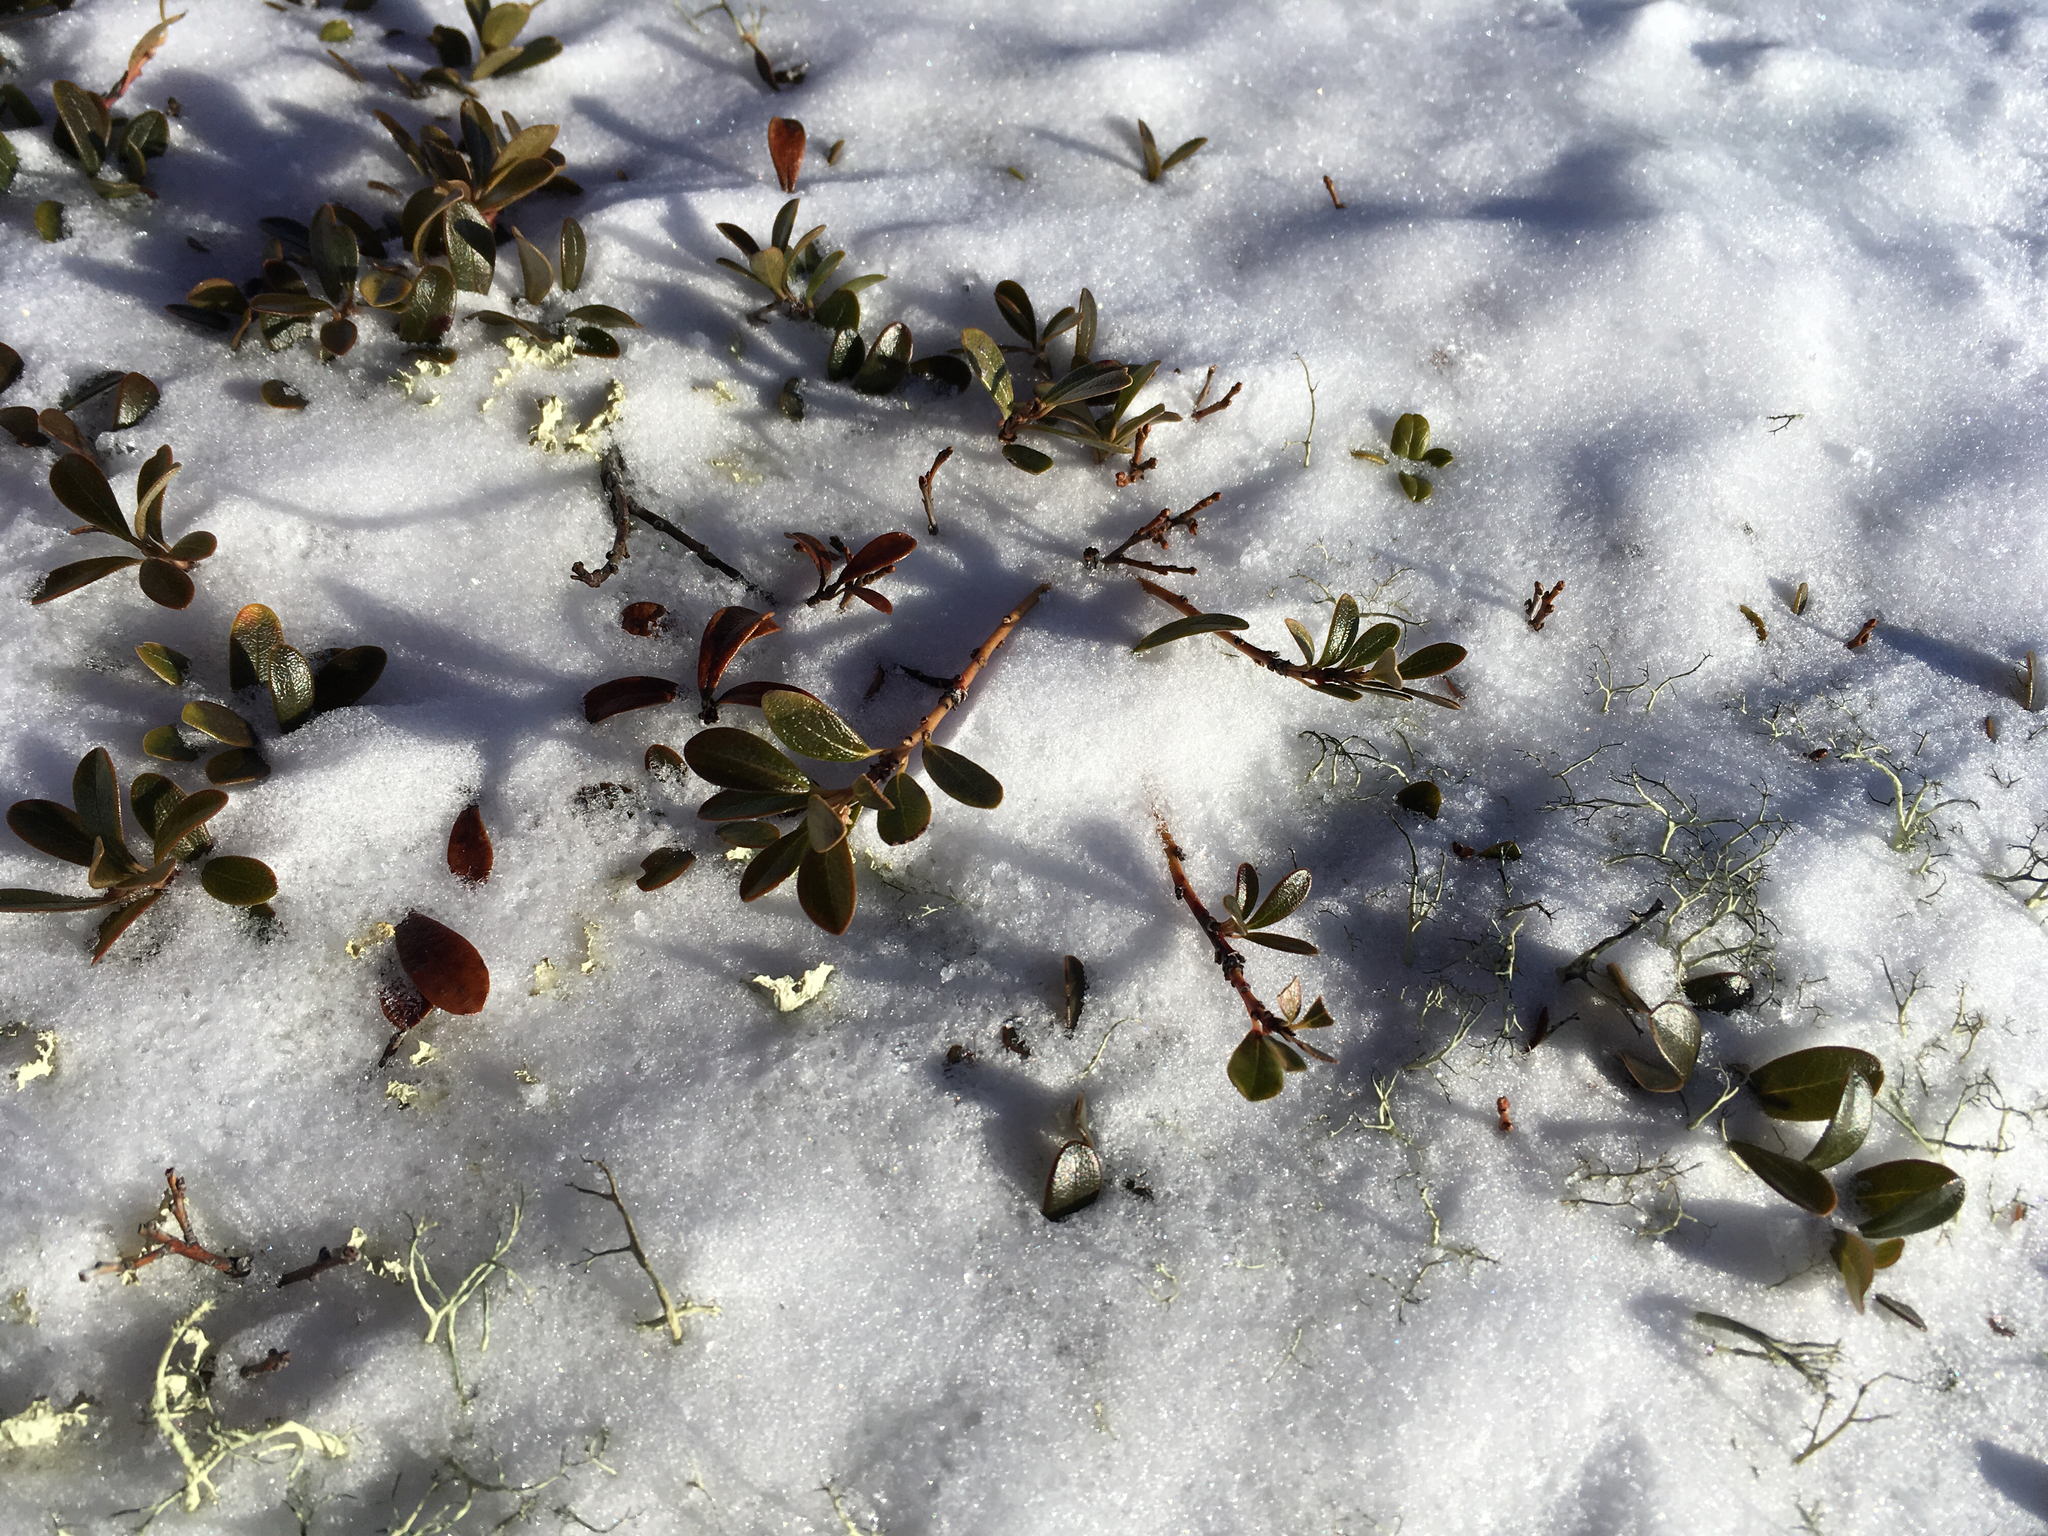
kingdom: Plantae
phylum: Tracheophyta
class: Magnoliopsida
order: Ericales
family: Ericaceae
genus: Arctostaphylos
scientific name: Arctostaphylos uva-ursi
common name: Bearberry
